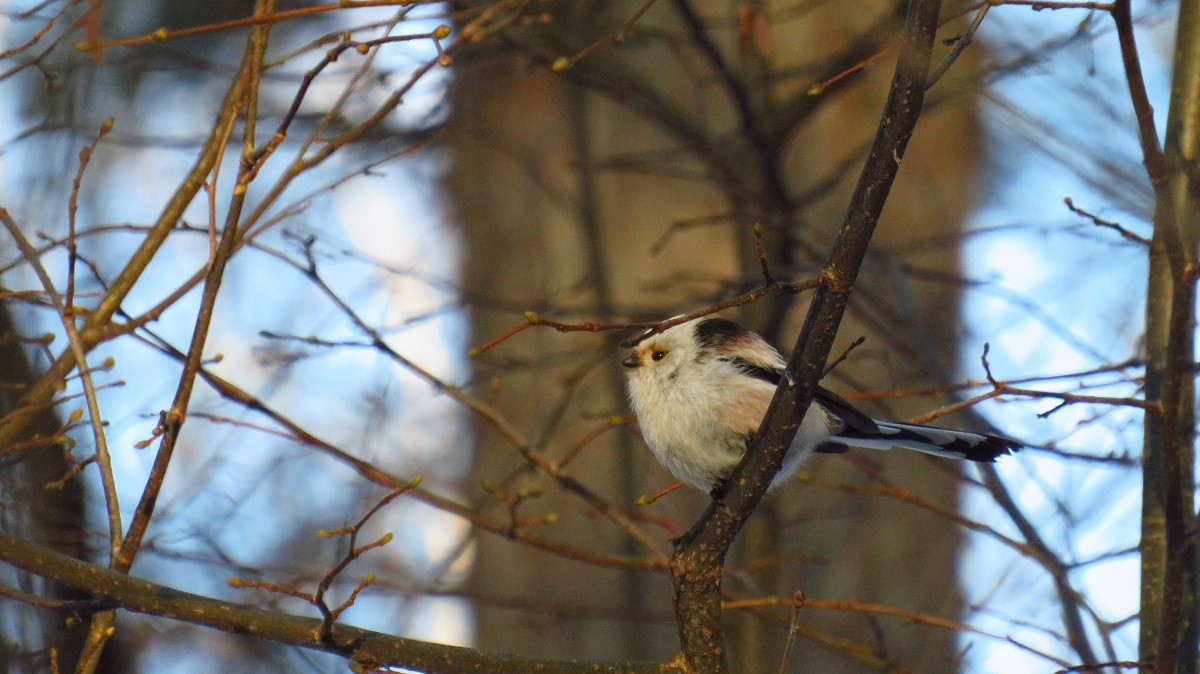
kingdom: Animalia
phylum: Chordata
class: Aves
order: Passeriformes
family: Aegithalidae
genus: Aegithalos
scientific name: Aegithalos caudatus
